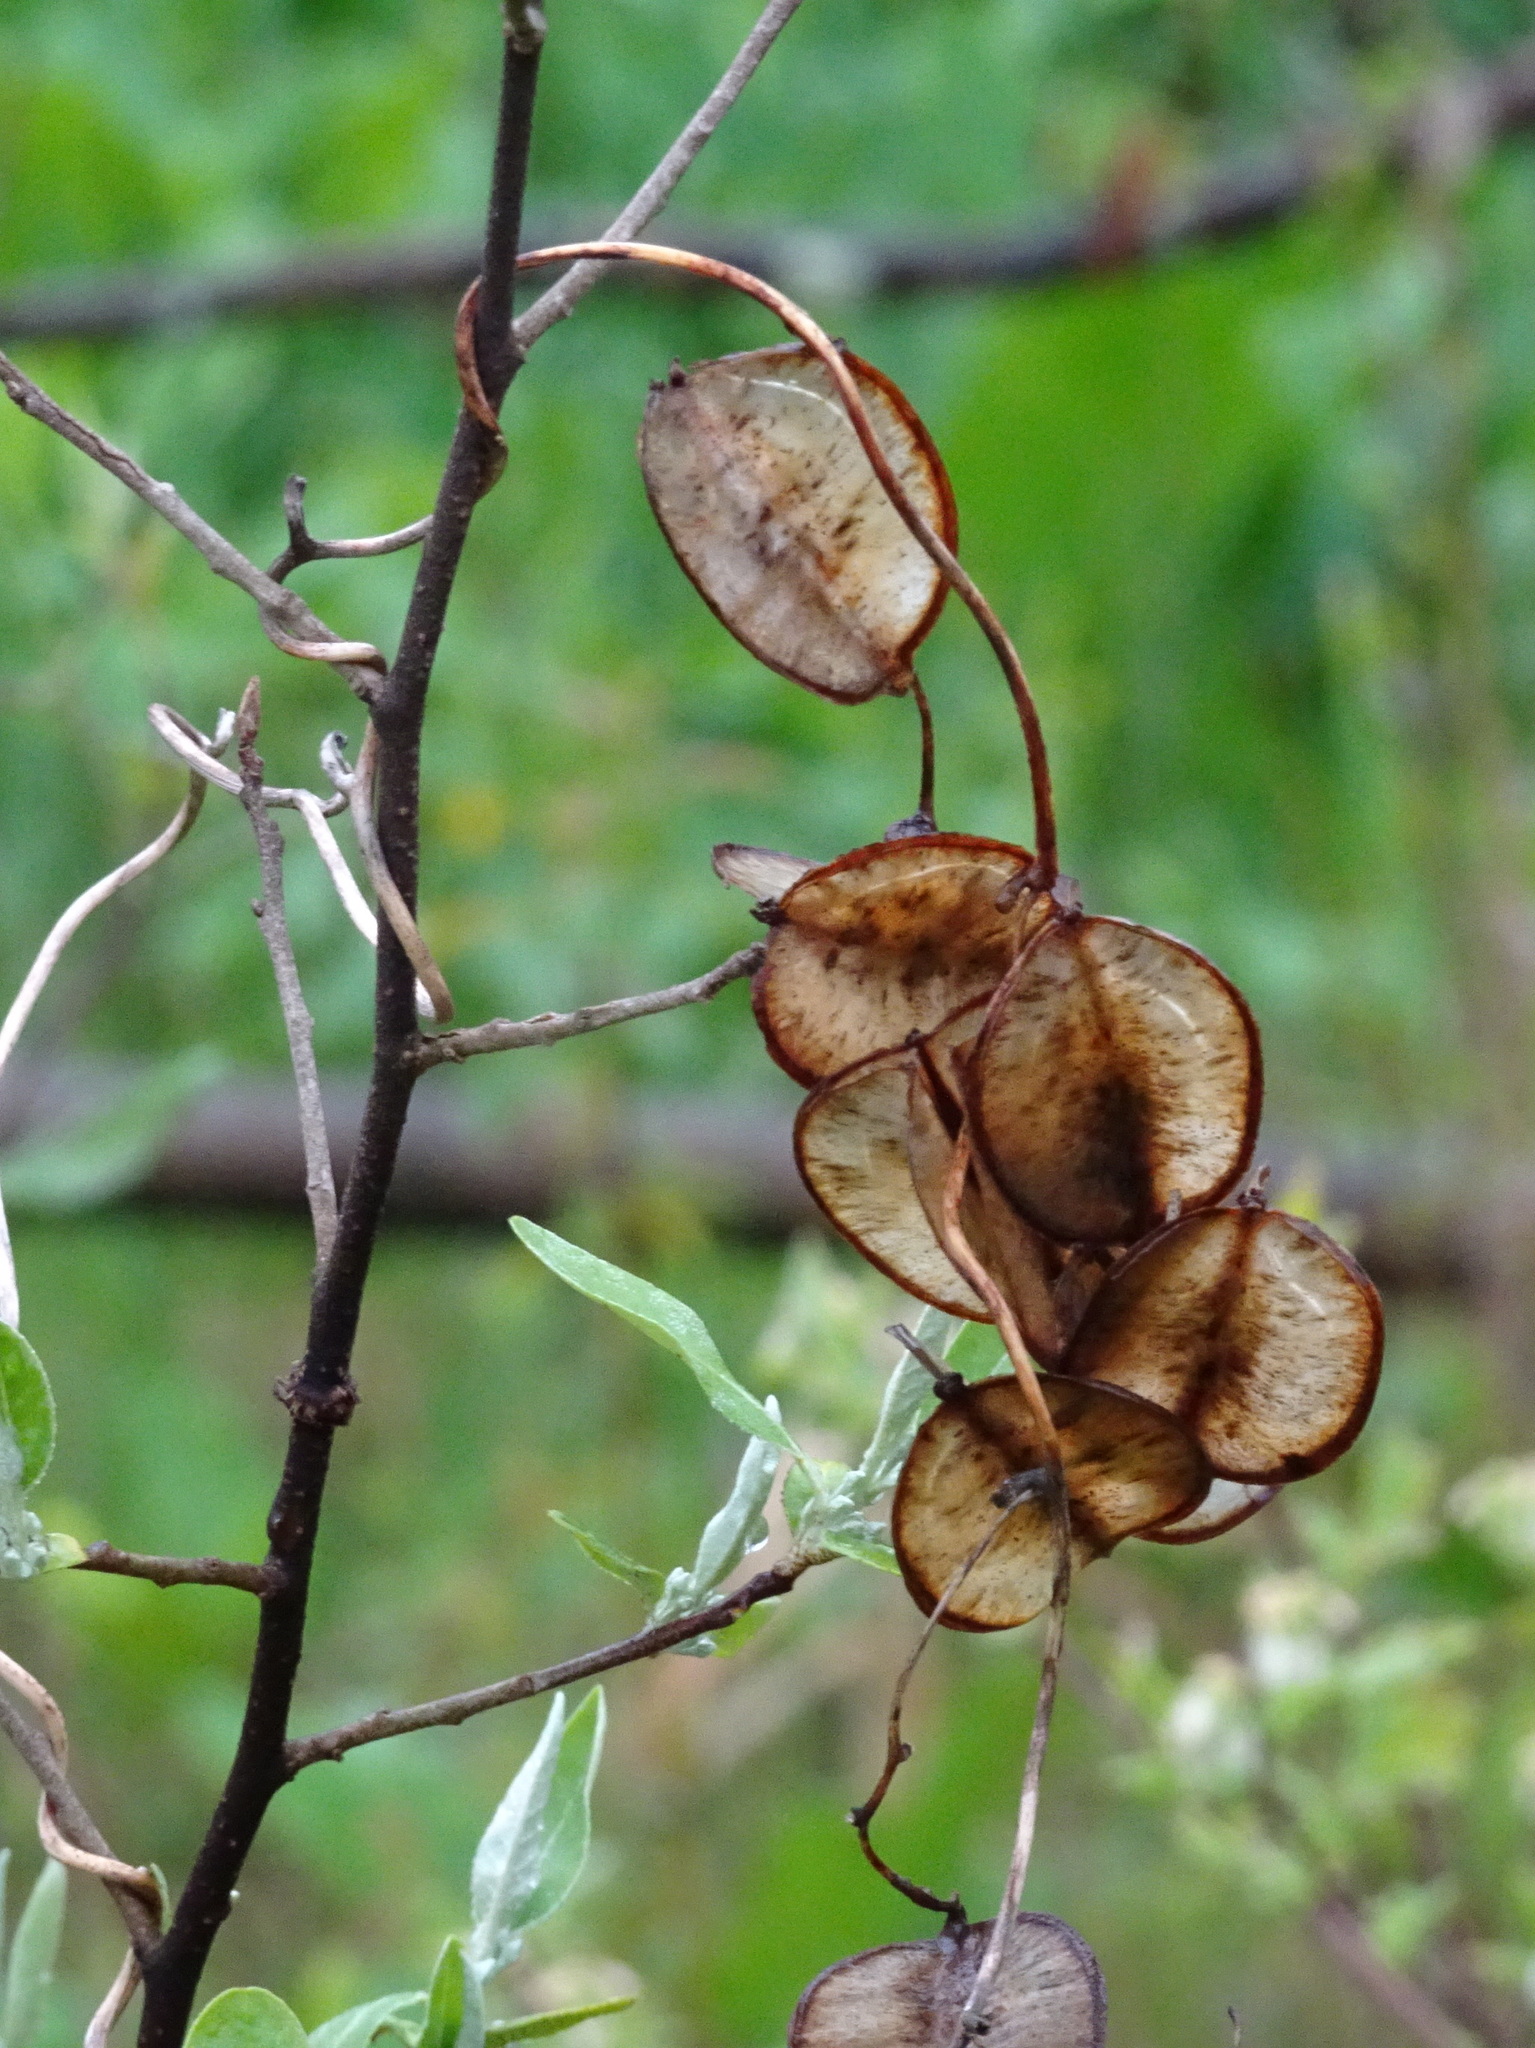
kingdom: Plantae
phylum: Tracheophyta
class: Liliopsida
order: Dioscoreales
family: Dioscoreaceae
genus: Dioscorea
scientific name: Dioscorea villosa
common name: Wild yam
